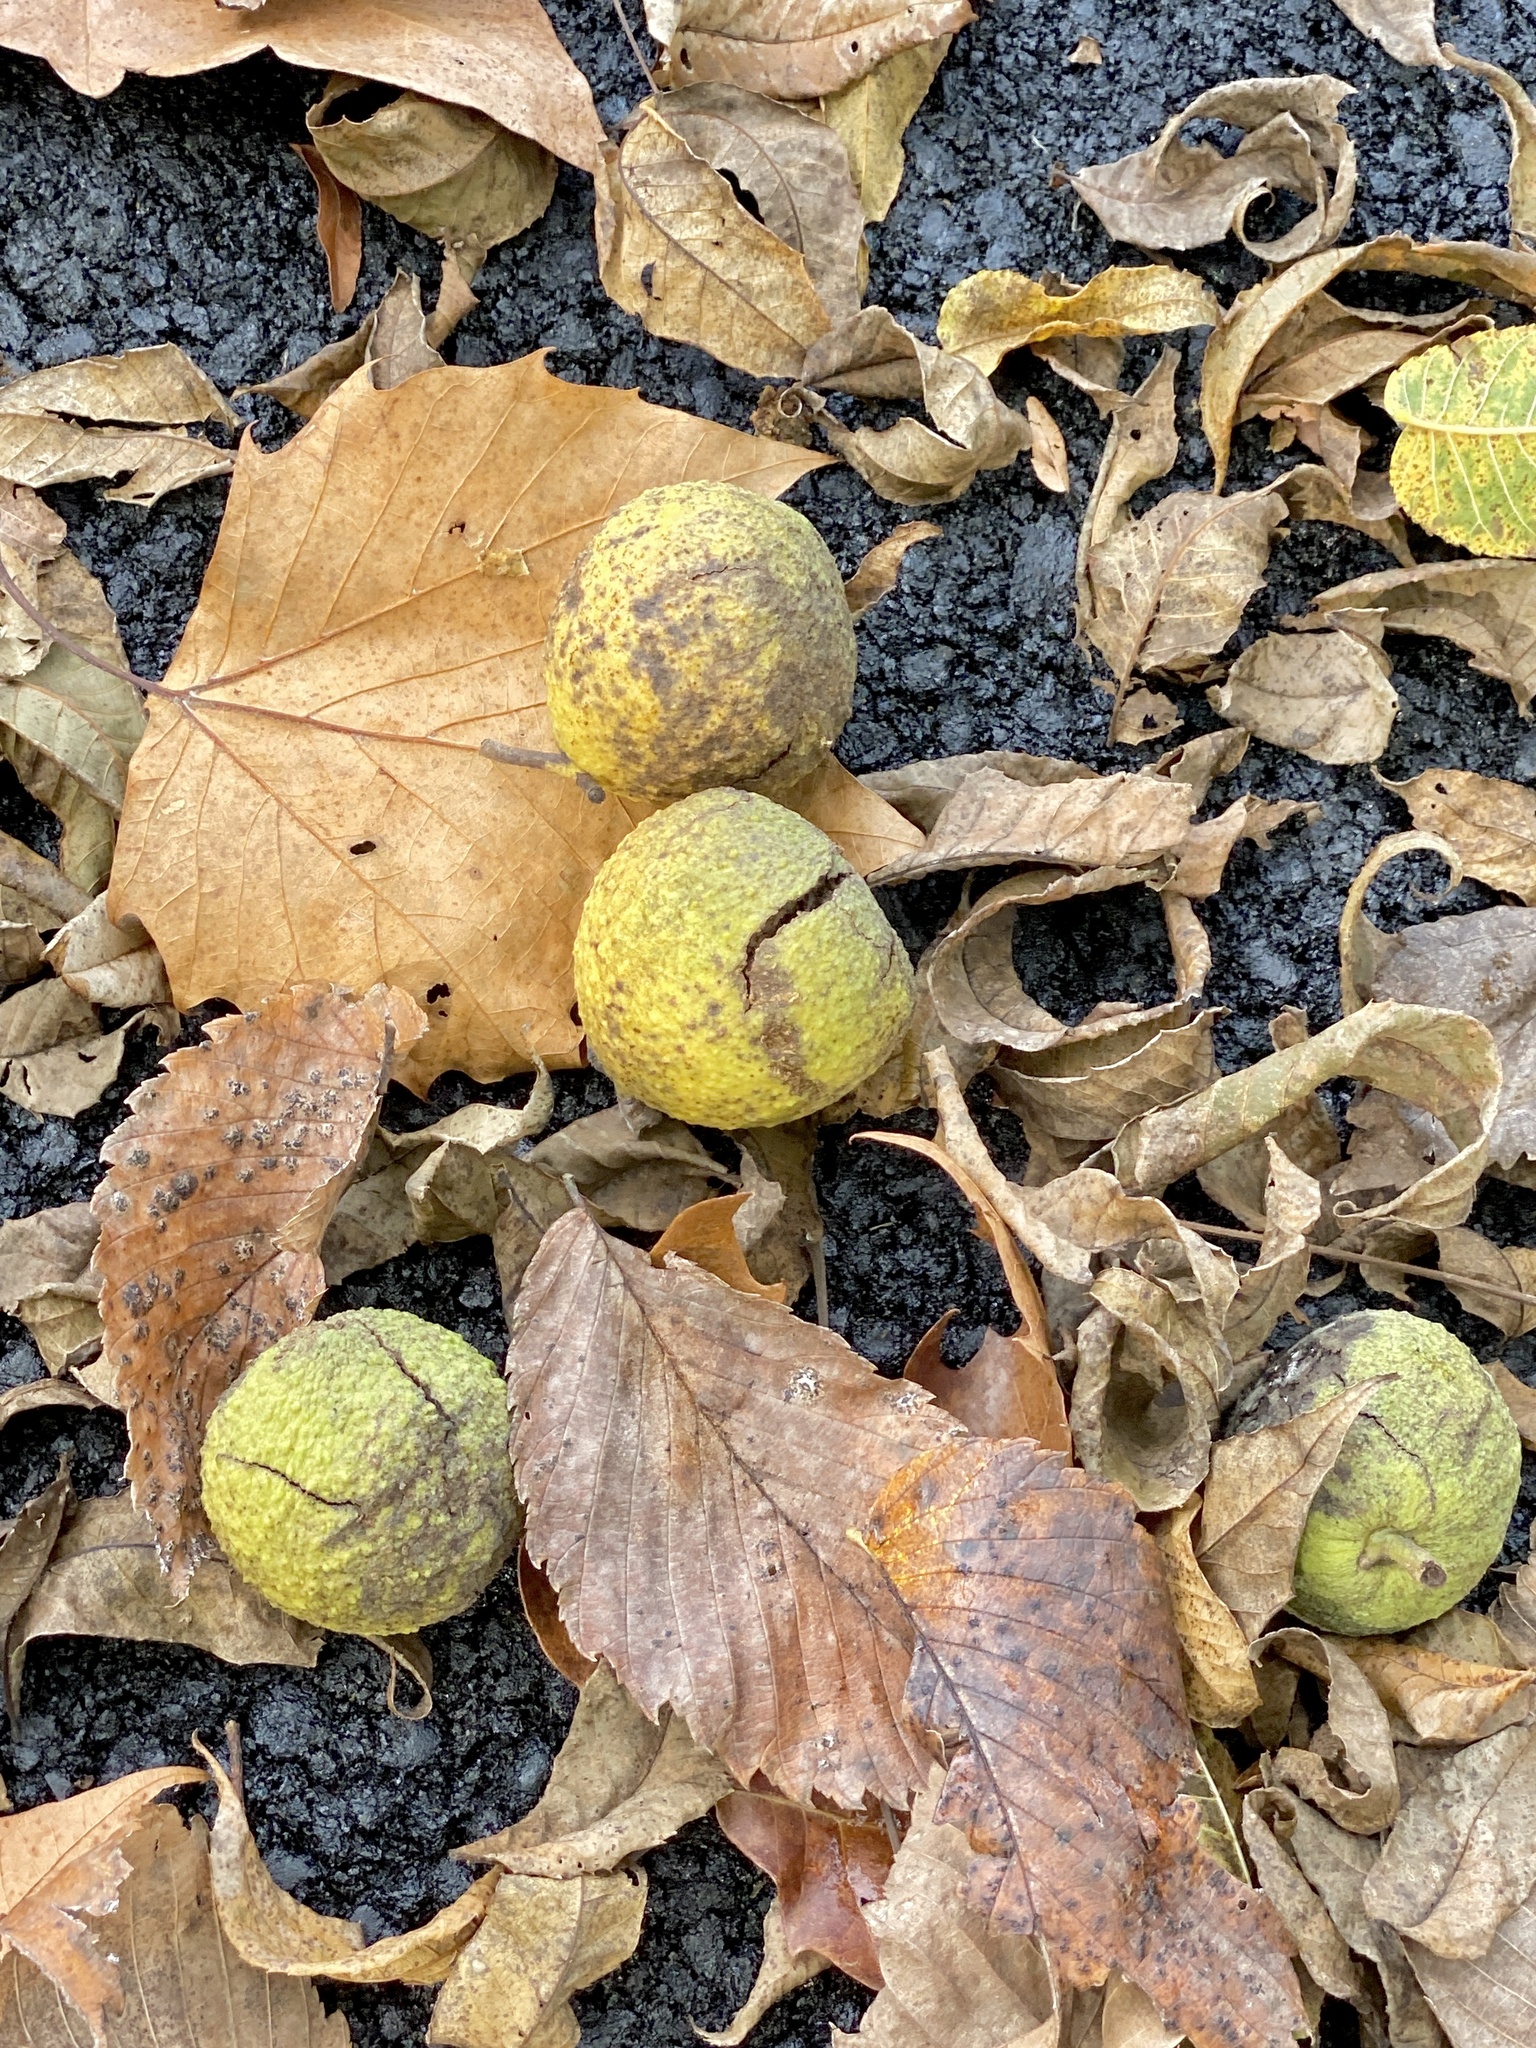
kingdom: Plantae
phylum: Tracheophyta
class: Magnoliopsida
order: Fagales
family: Juglandaceae
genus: Juglans
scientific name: Juglans nigra
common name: Black walnut
